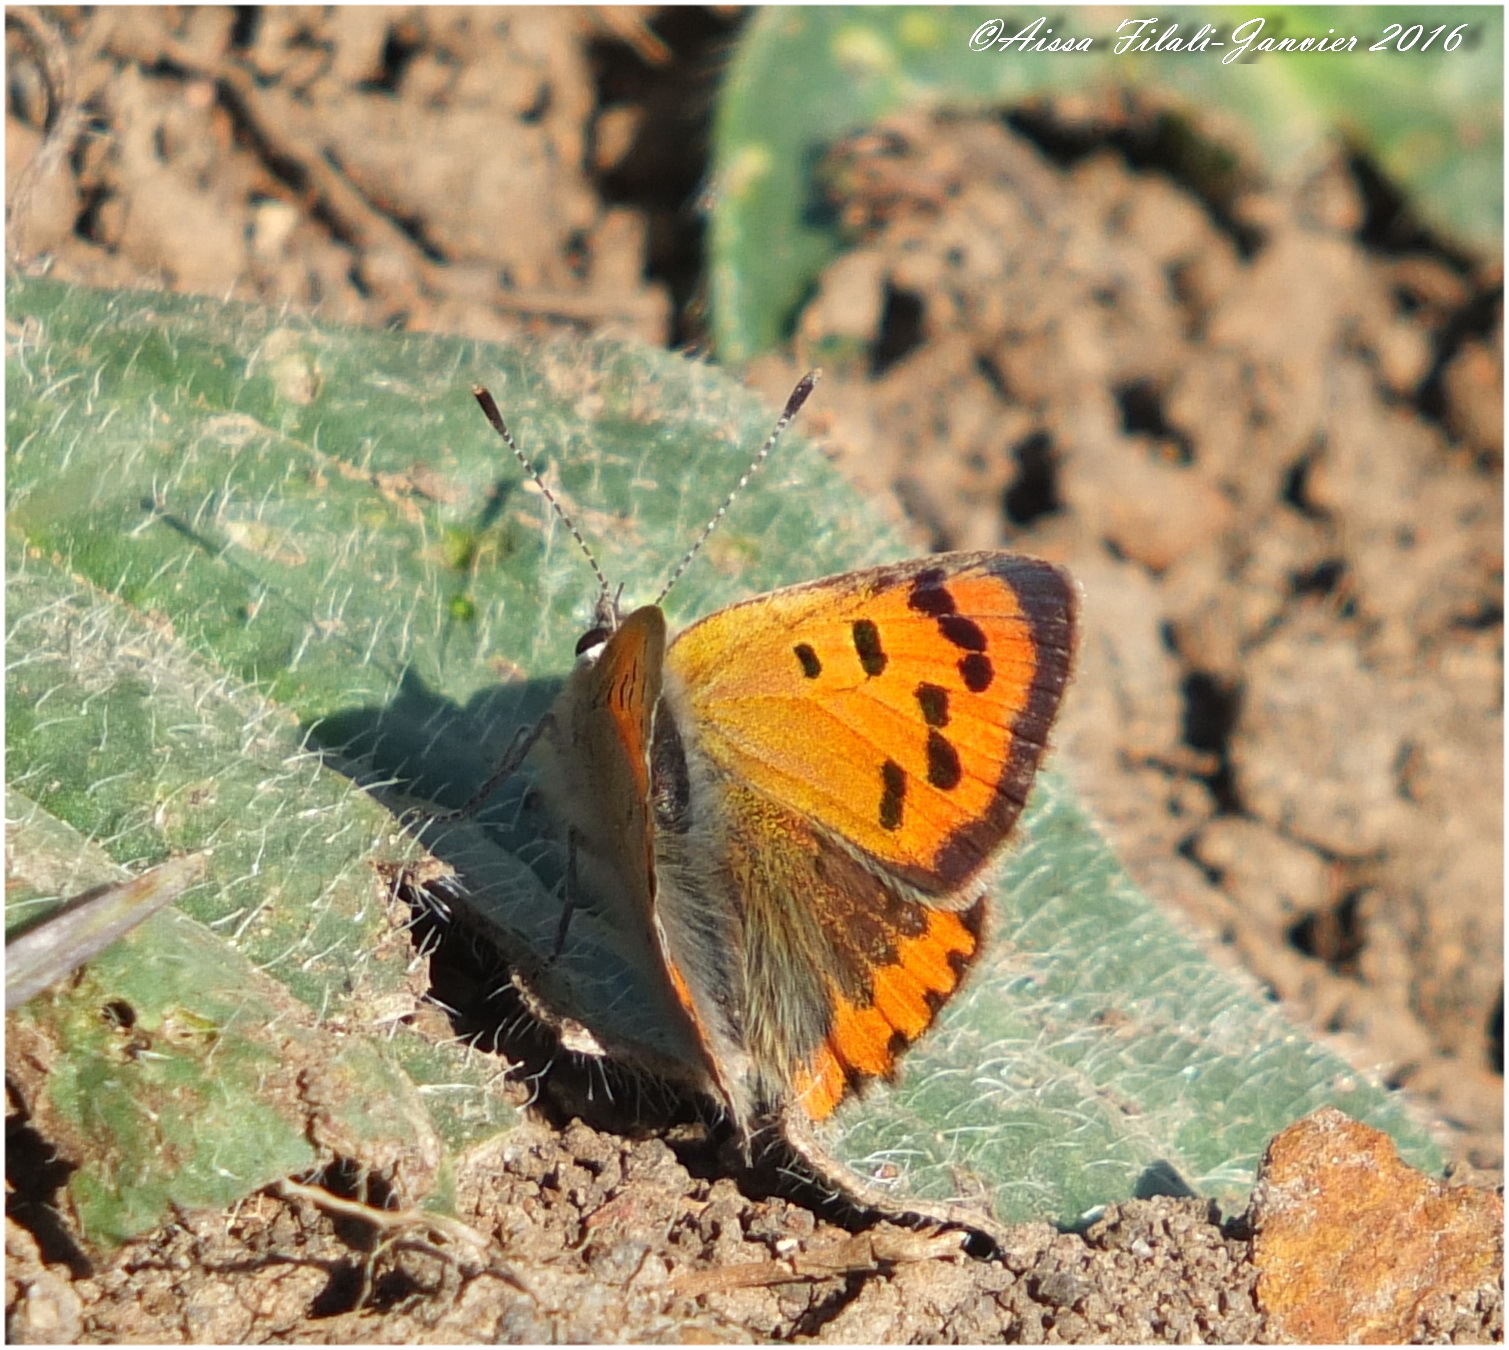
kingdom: Animalia
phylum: Arthropoda
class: Insecta
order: Lepidoptera
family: Lycaenidae
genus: Lycaena
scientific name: Lycaena phlaeas
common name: Small copper
